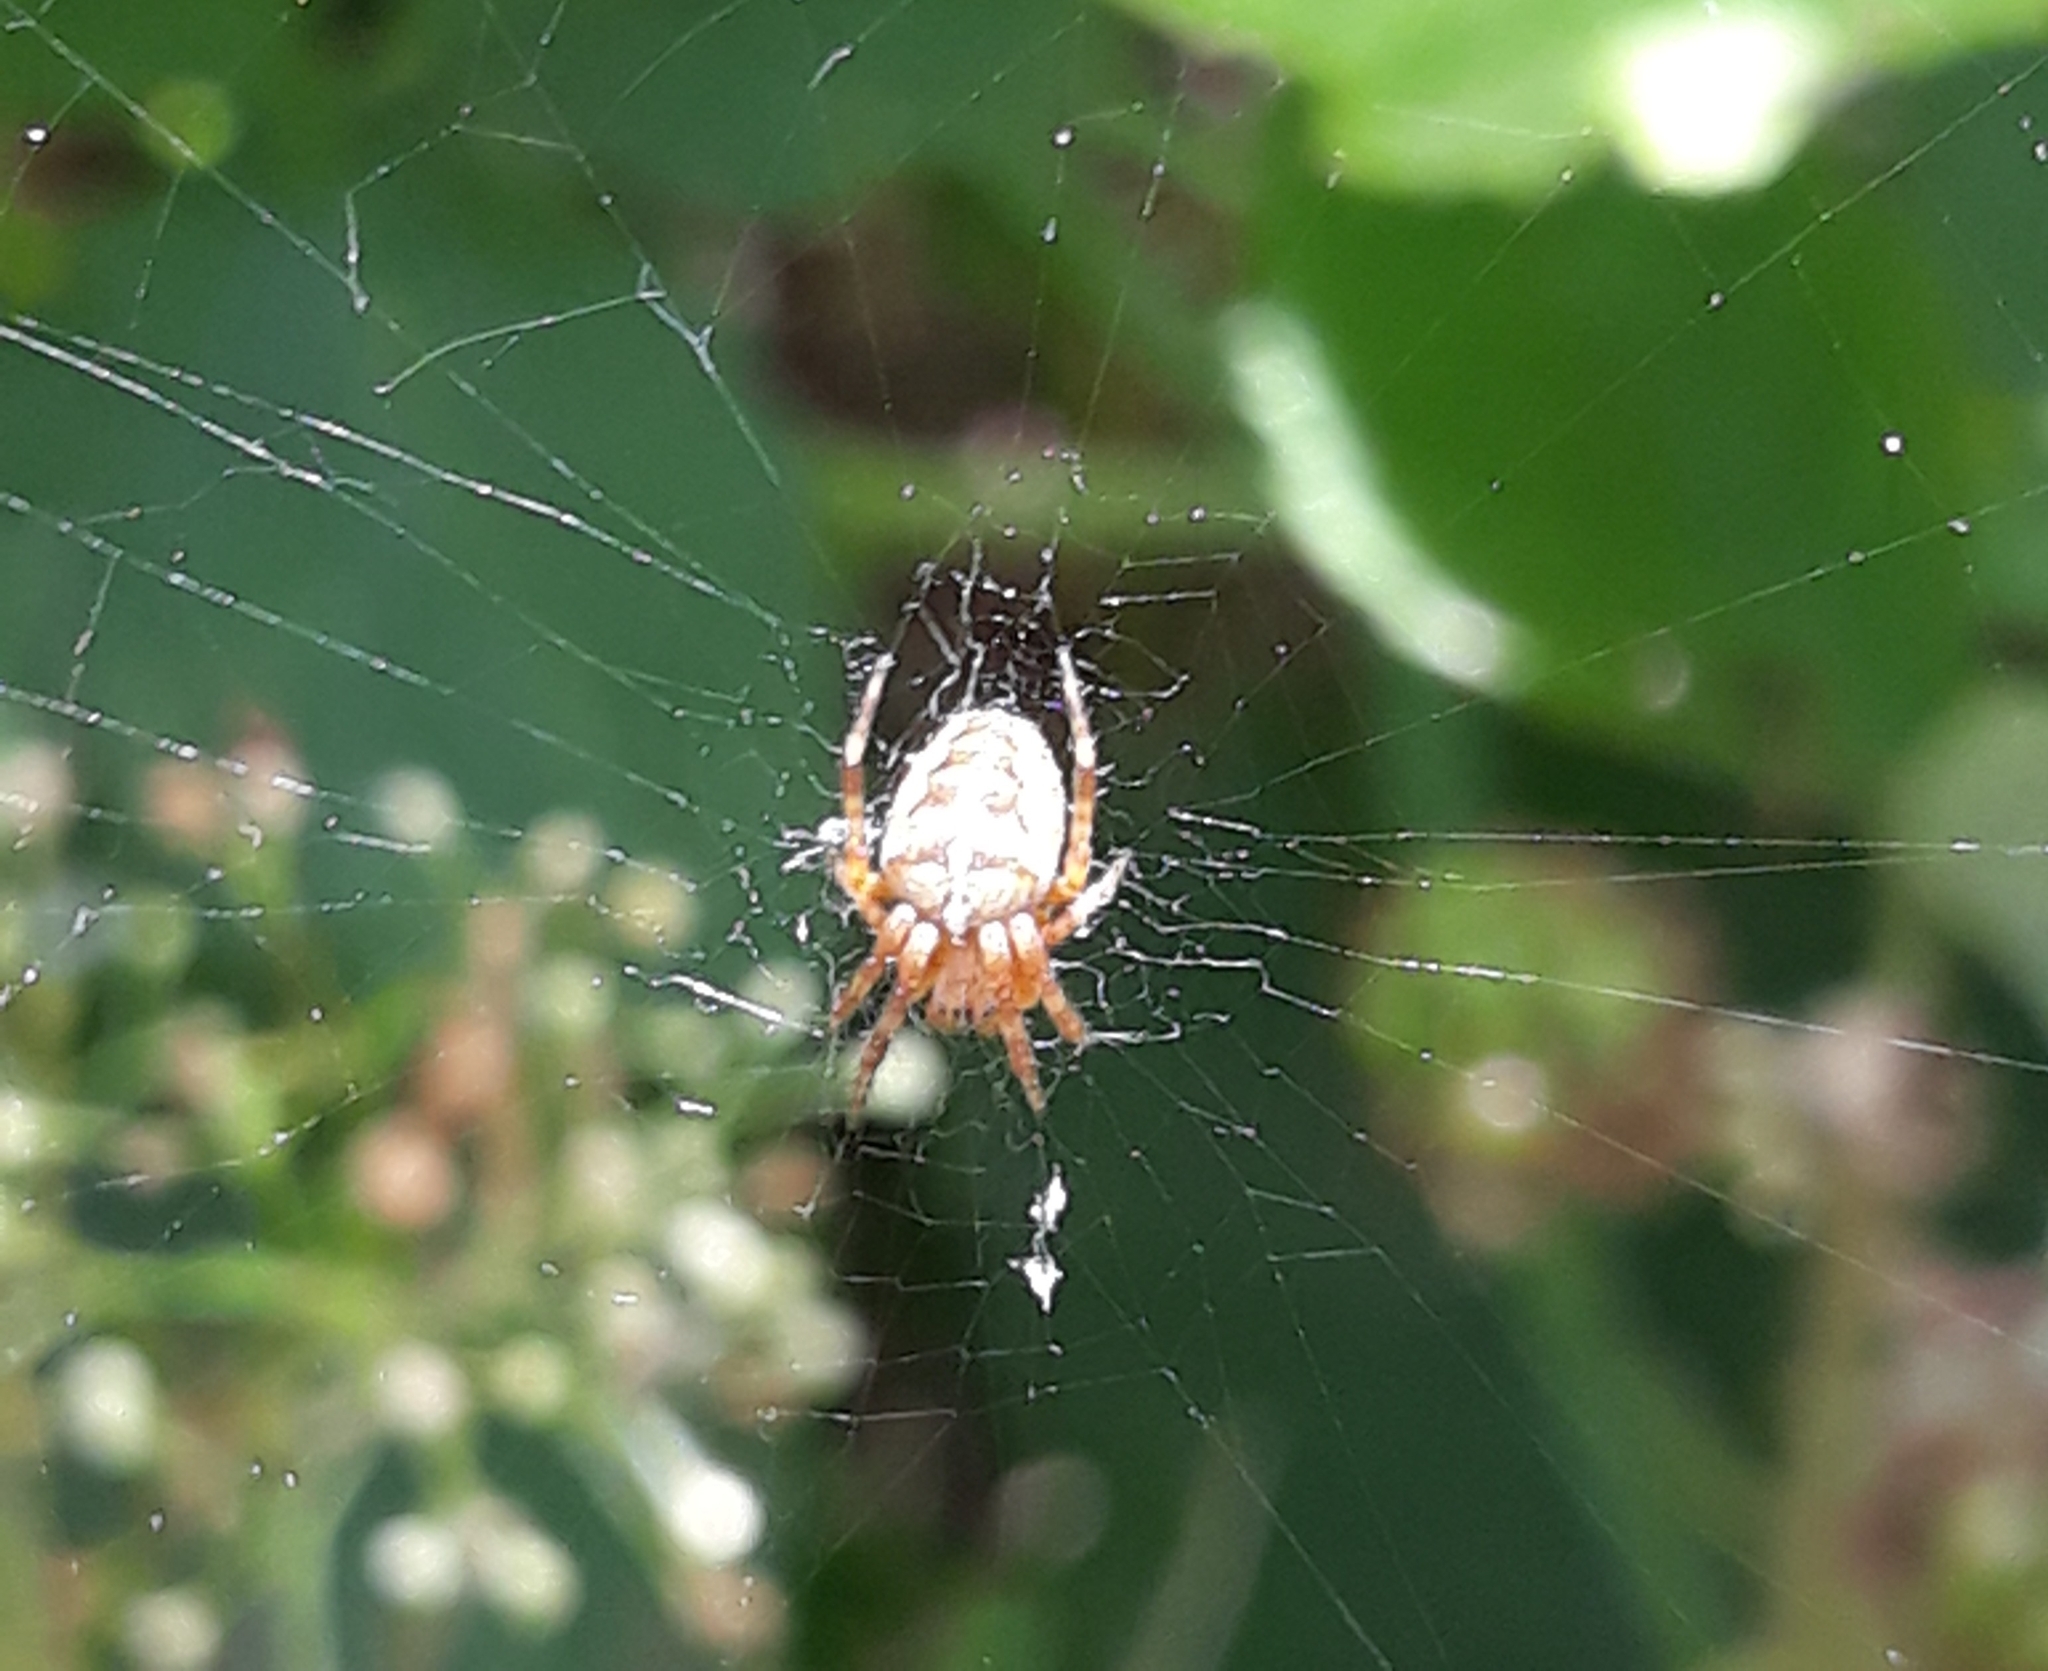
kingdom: Animalia
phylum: Arthropoda
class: Arachnida
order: Araneae
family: Araneidae
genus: Araneus
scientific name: Araneus diadematus
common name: Cross orbweaver
